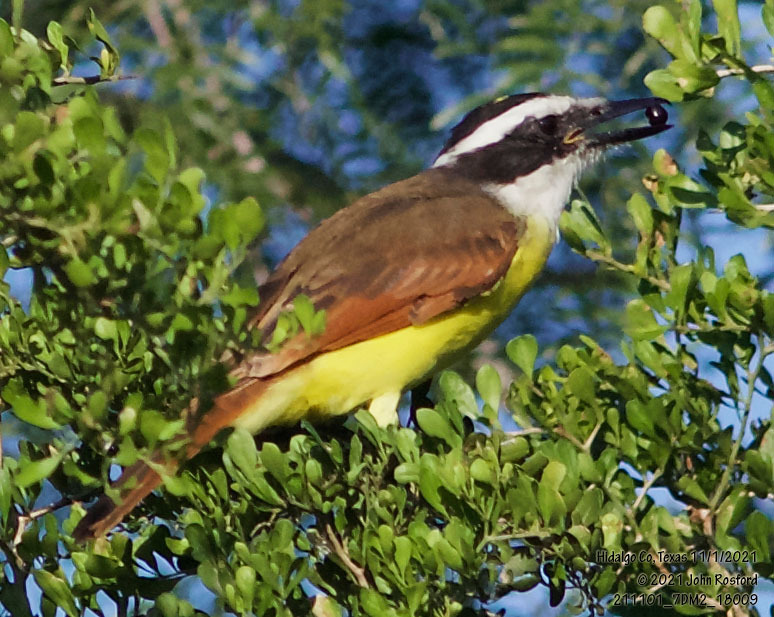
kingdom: Animalia
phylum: Chordata
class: Aves
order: Passeriformes
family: Tyrannidae
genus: Pitangus
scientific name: Pitangus sulphuratus
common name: Great kiskadee
